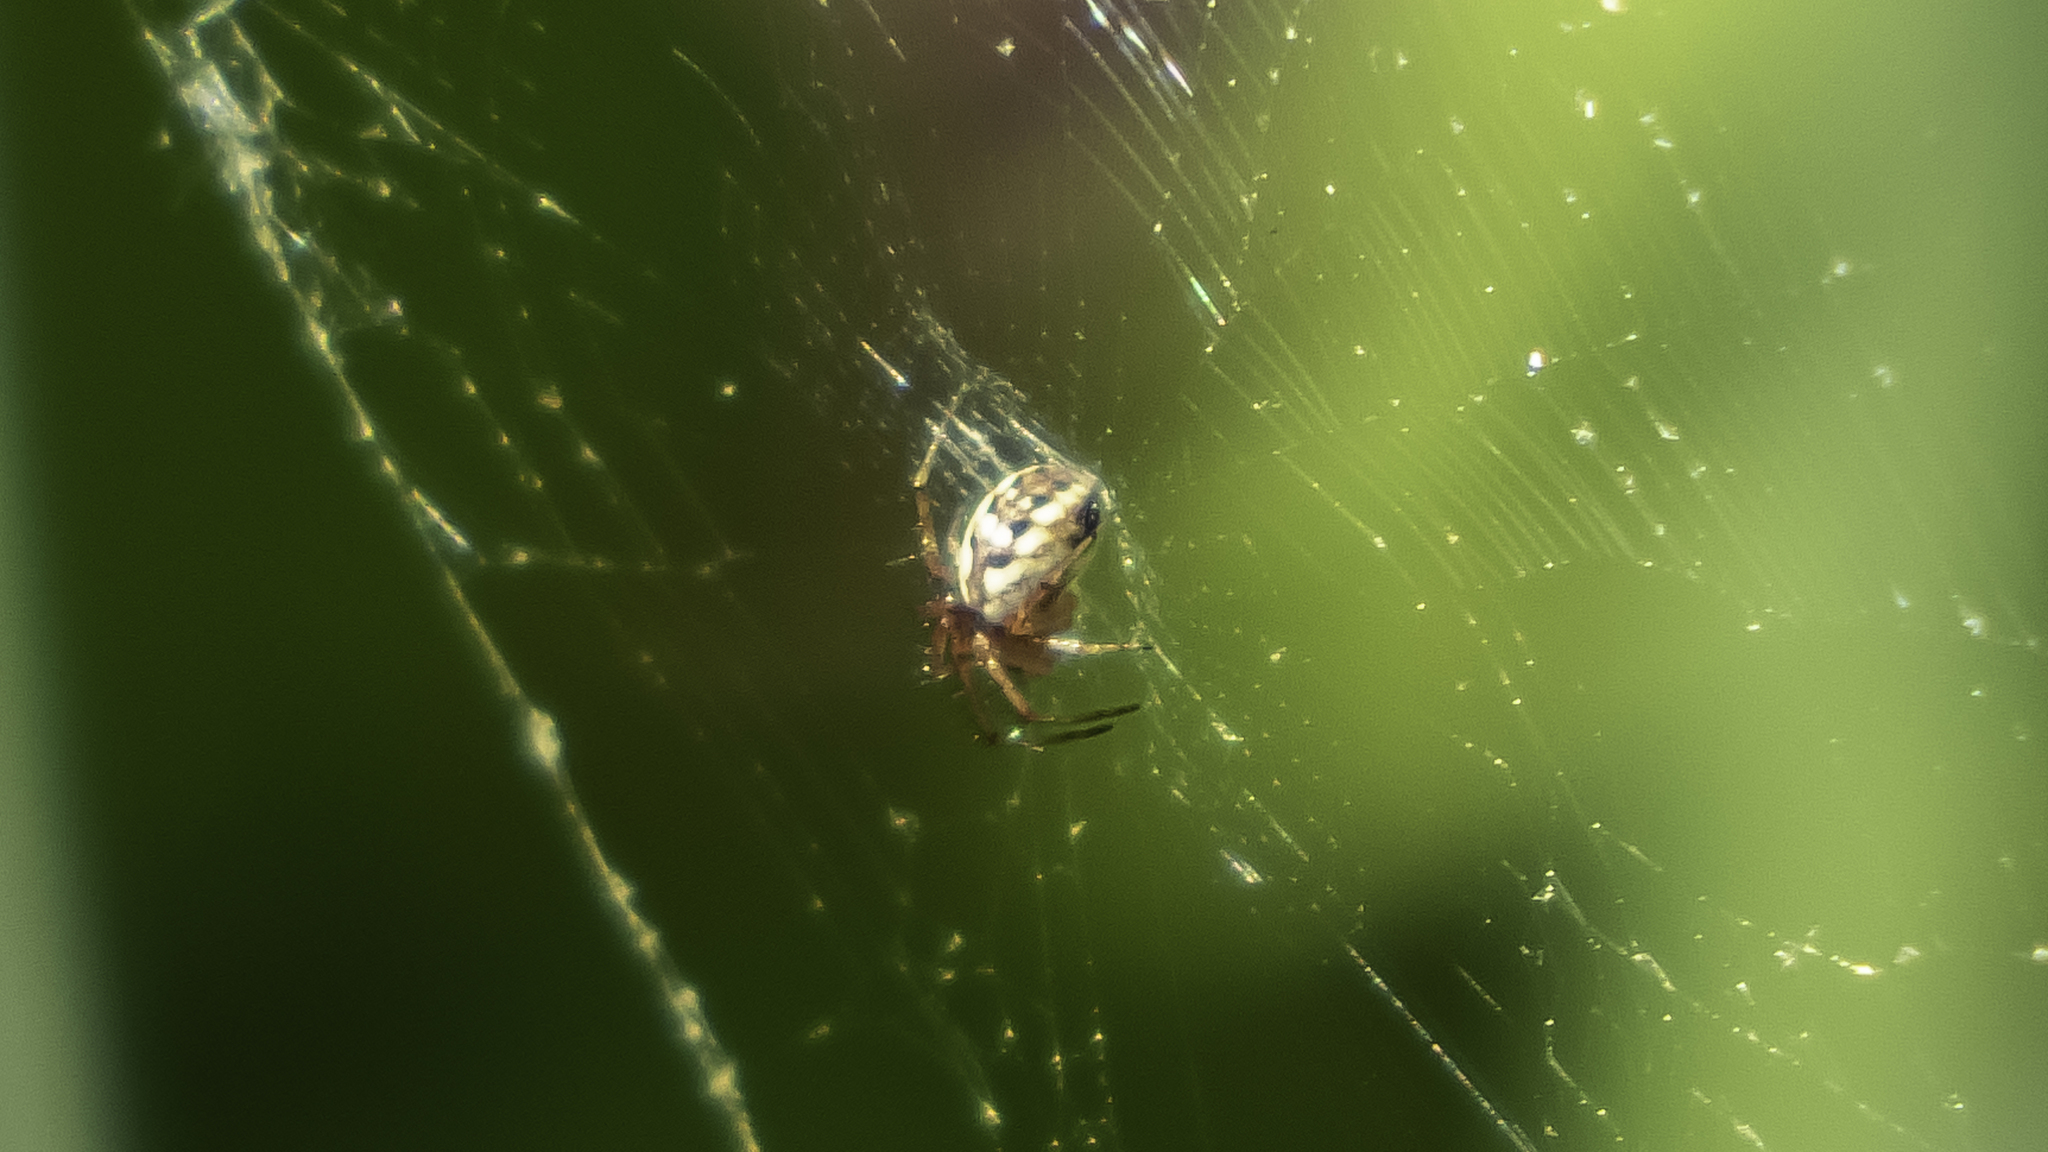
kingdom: Animalia
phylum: Arthropoda
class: Arachnida
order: Araneae
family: Araneidae
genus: Mangora
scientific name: Mangora placida
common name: Tuft-legged orbweaver
